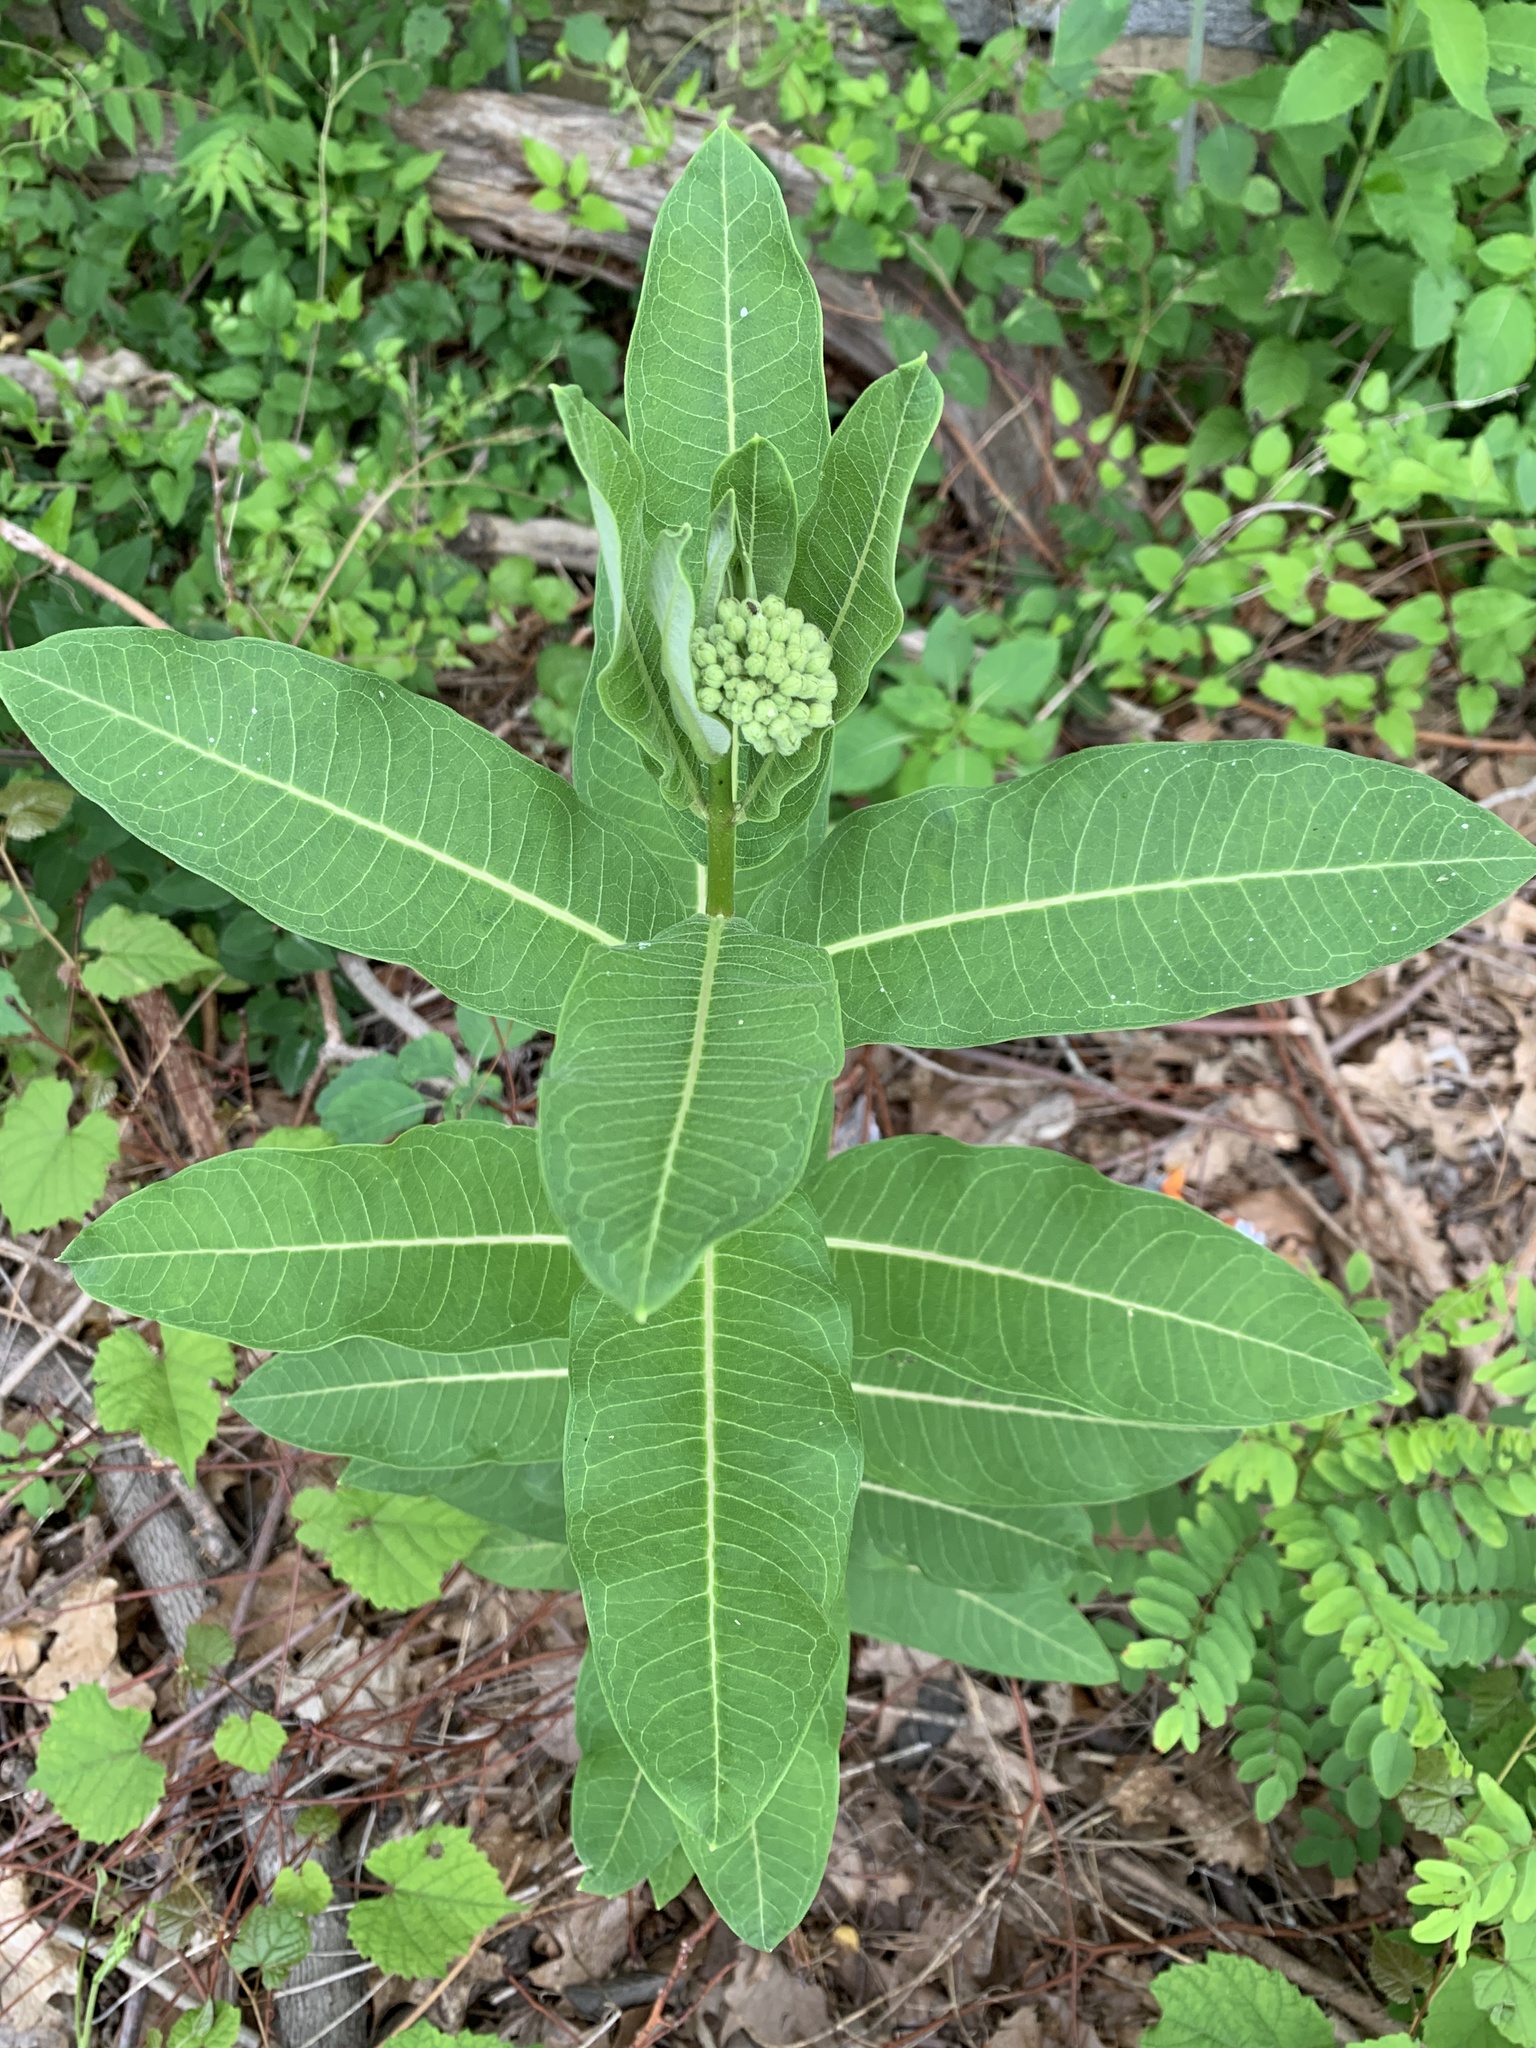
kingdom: Plantae
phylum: Tracheophyta
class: Magnoliopsida
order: Gentianales
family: Apocynaceae
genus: Asclepias
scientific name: Asclepias syriaca
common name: Common milkweed
